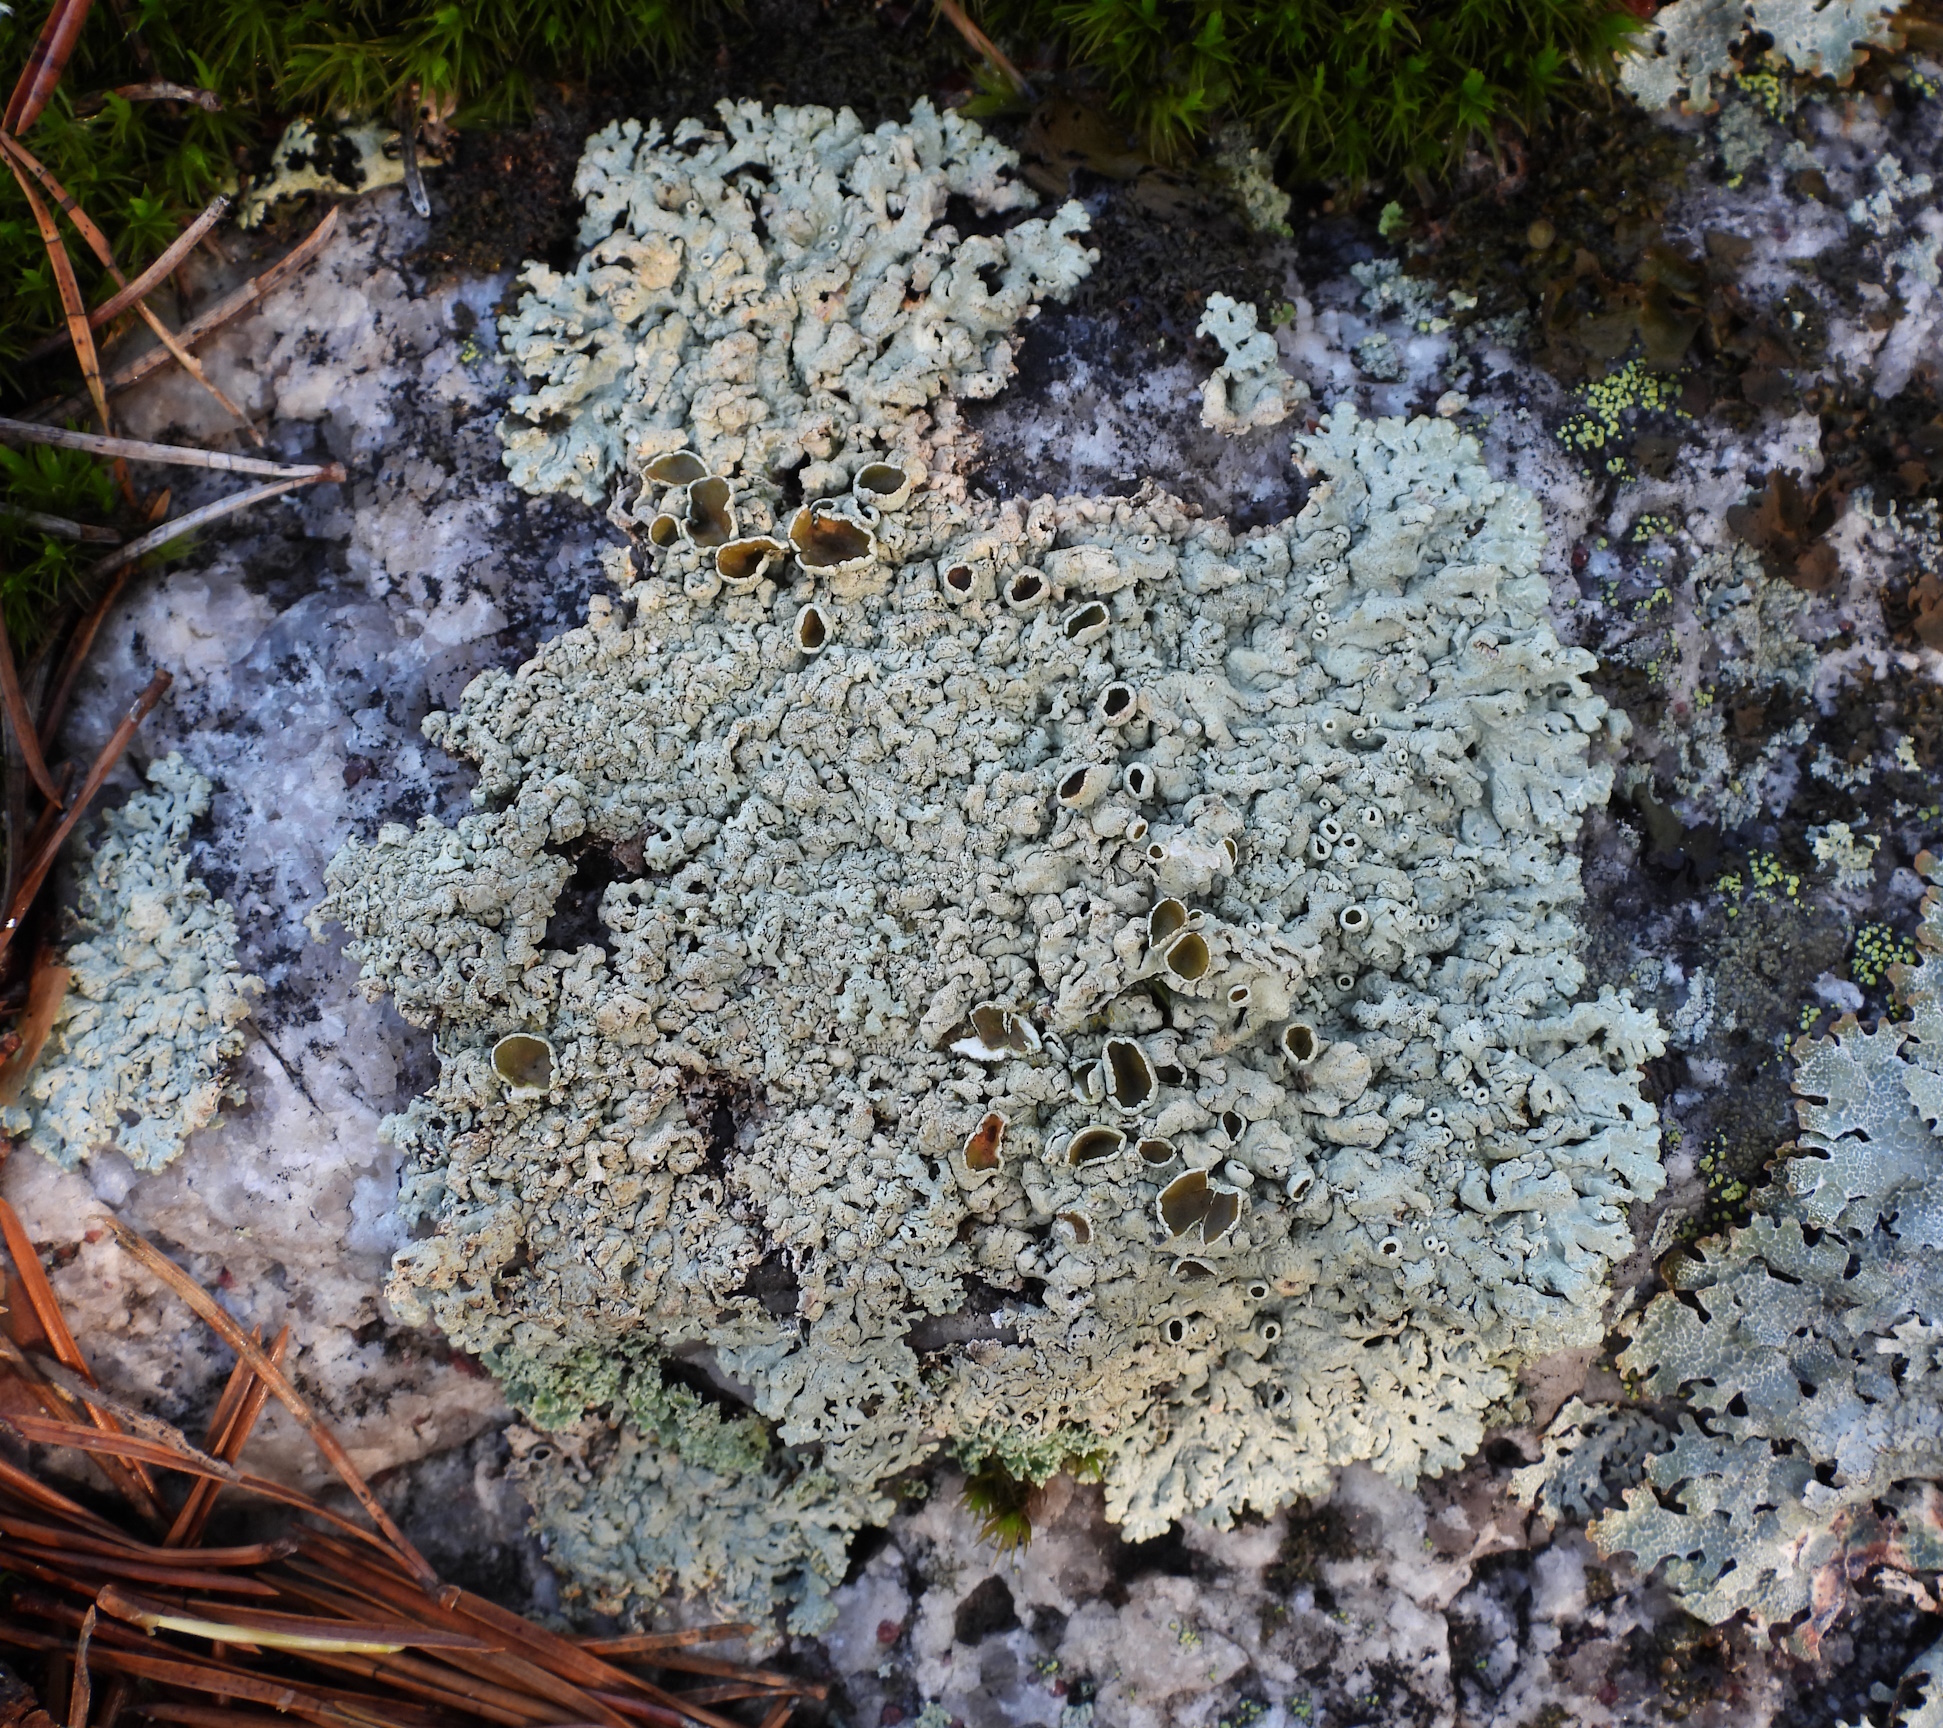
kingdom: Fungi
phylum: Ascomycota
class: Lecanoromycetes
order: Lecanorales
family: Parmeliaceae
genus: Arctoparmelia
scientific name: Arctoparmelia centrifuga
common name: Concentric ring lichen
